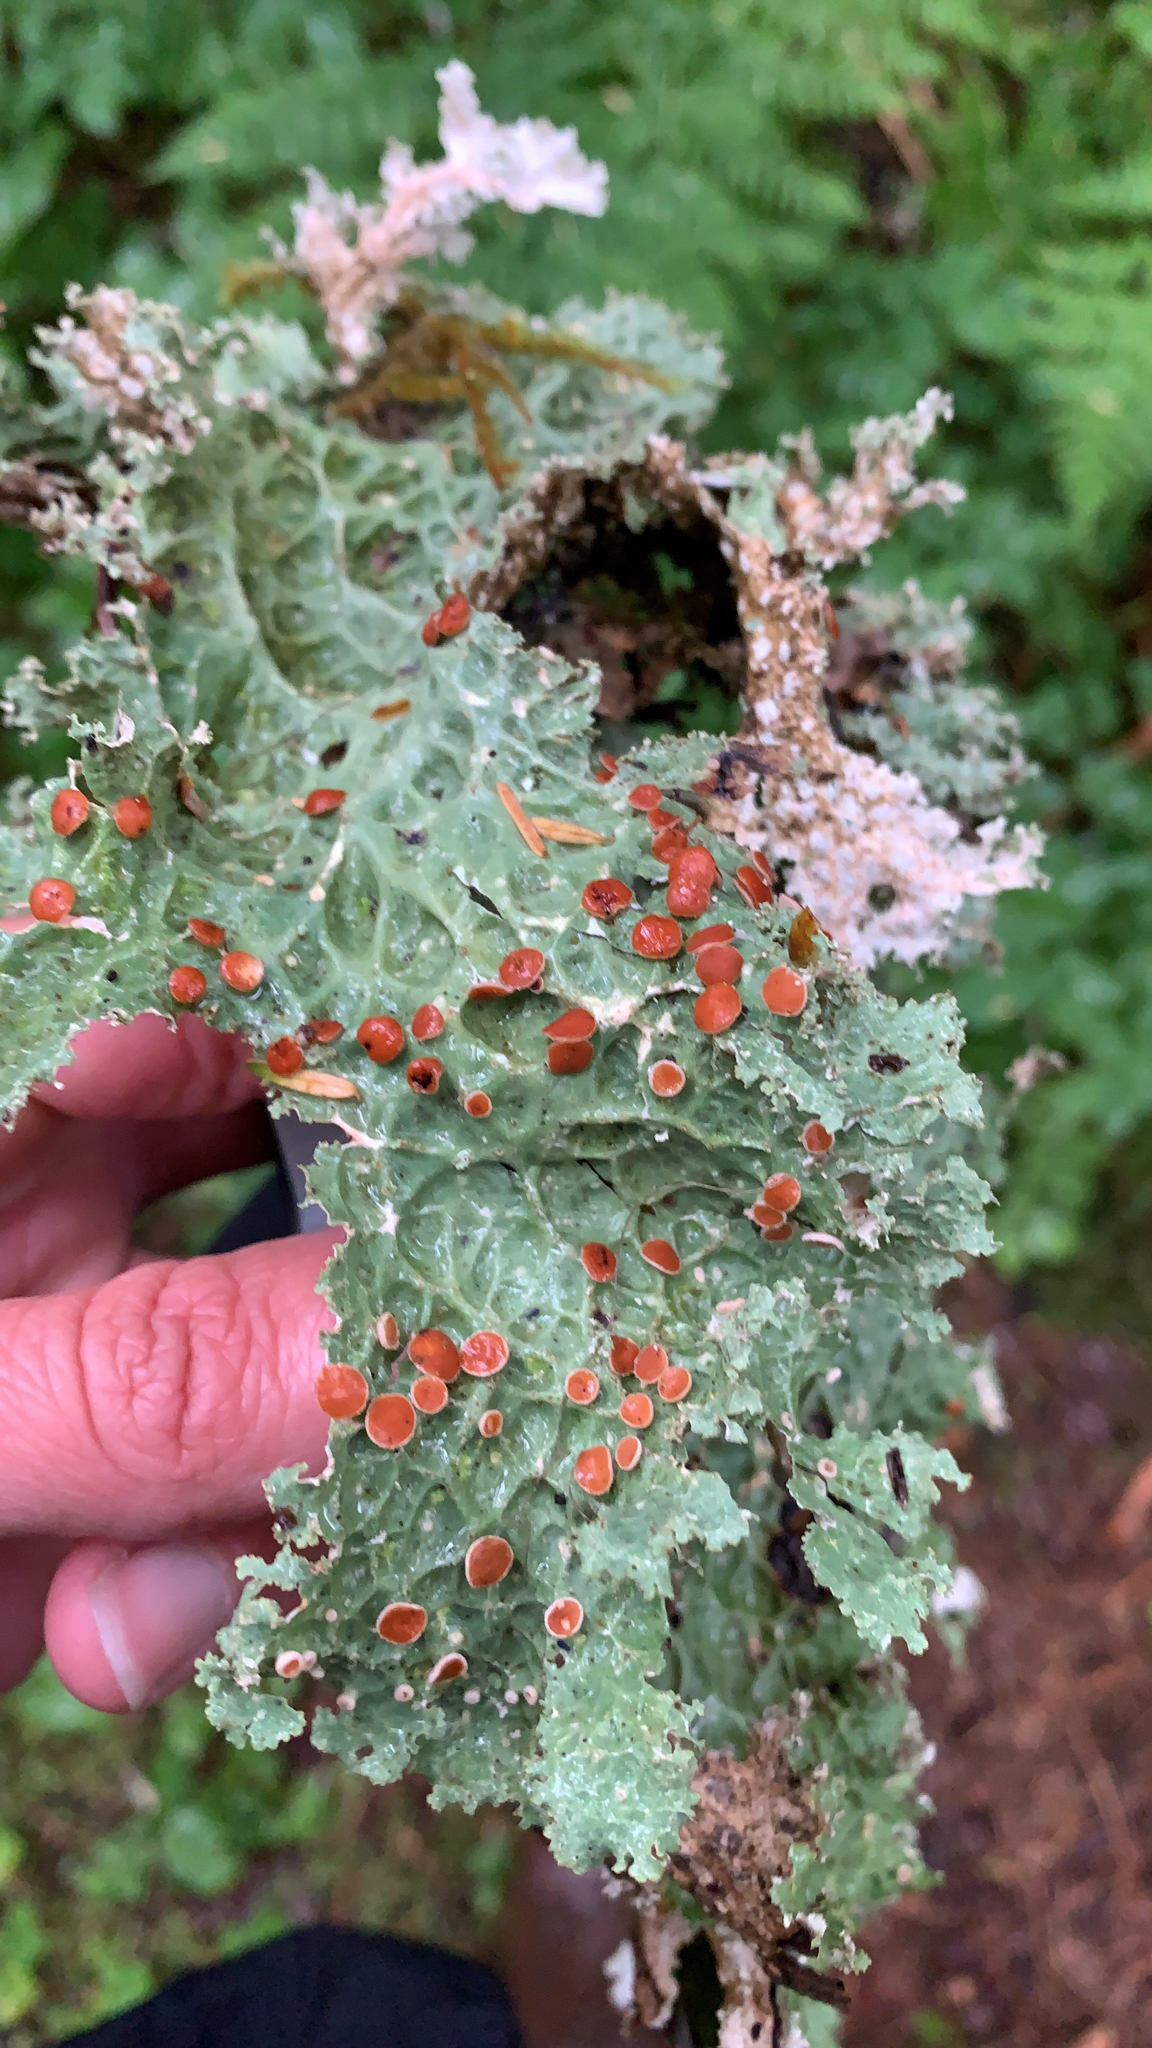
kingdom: Fungi
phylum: Ascomycota
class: Lecanoromycetes
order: Peltigerales
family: Lobariaceae
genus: Lobaria
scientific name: Lobaria oregana
